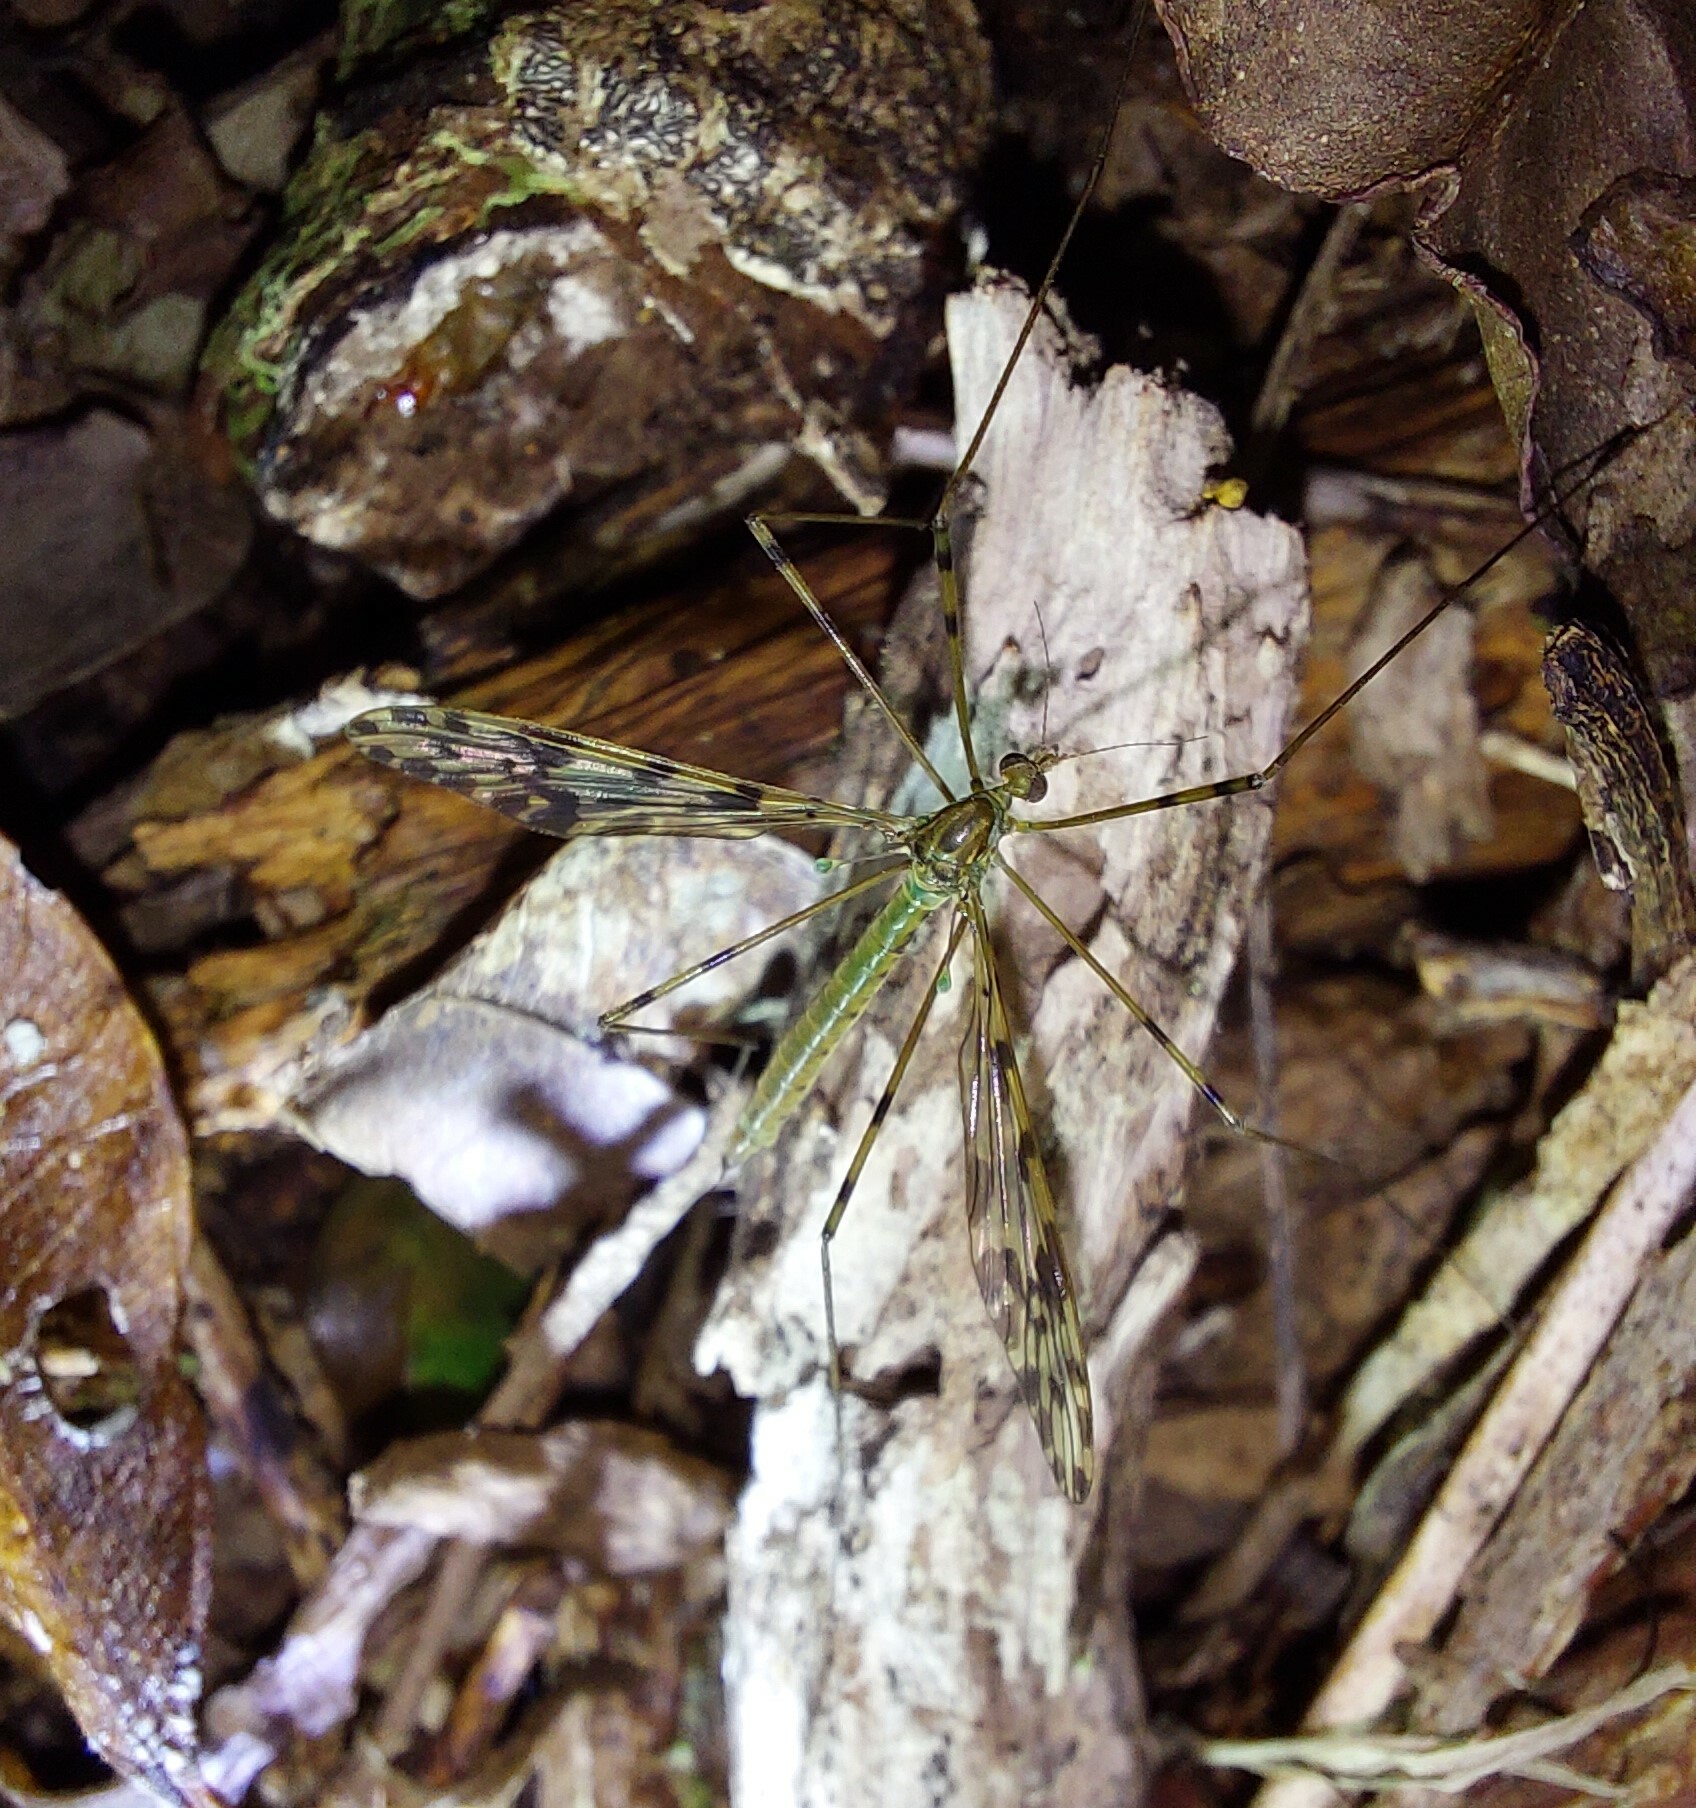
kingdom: Animalia
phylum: Arthropoda
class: Insecta
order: Diptera
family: Limoniidae
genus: Austrolimnophila
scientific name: Austrolimnophila lambi
